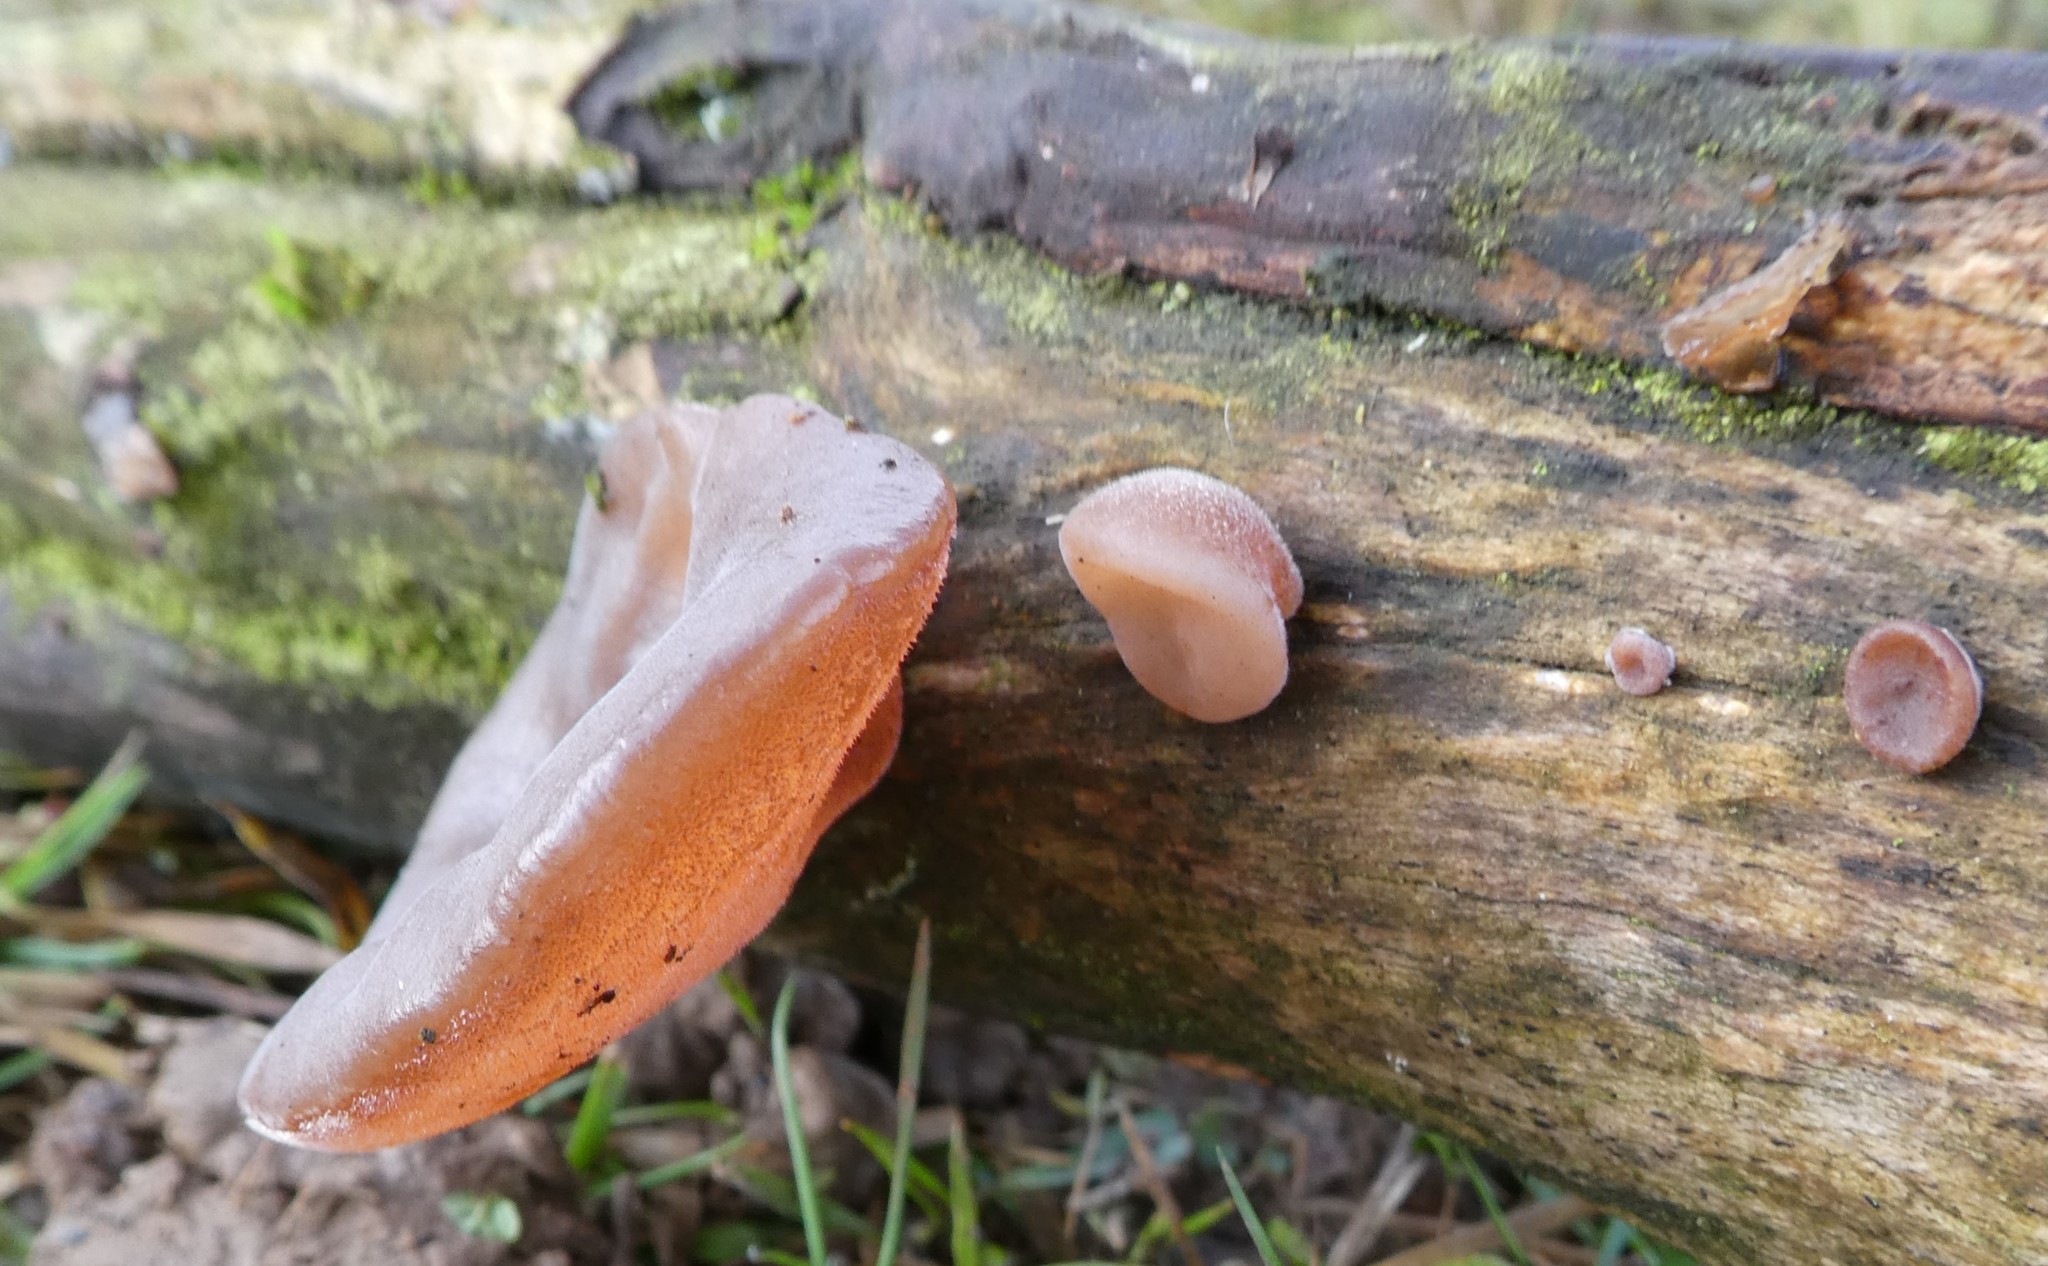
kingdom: Fungi
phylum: Basidiomycota
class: Agaricomycetes
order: Auriculariales
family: Auriculariaceae
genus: Auricularia
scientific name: Auricularia auricula-judae
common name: Jelly ear
